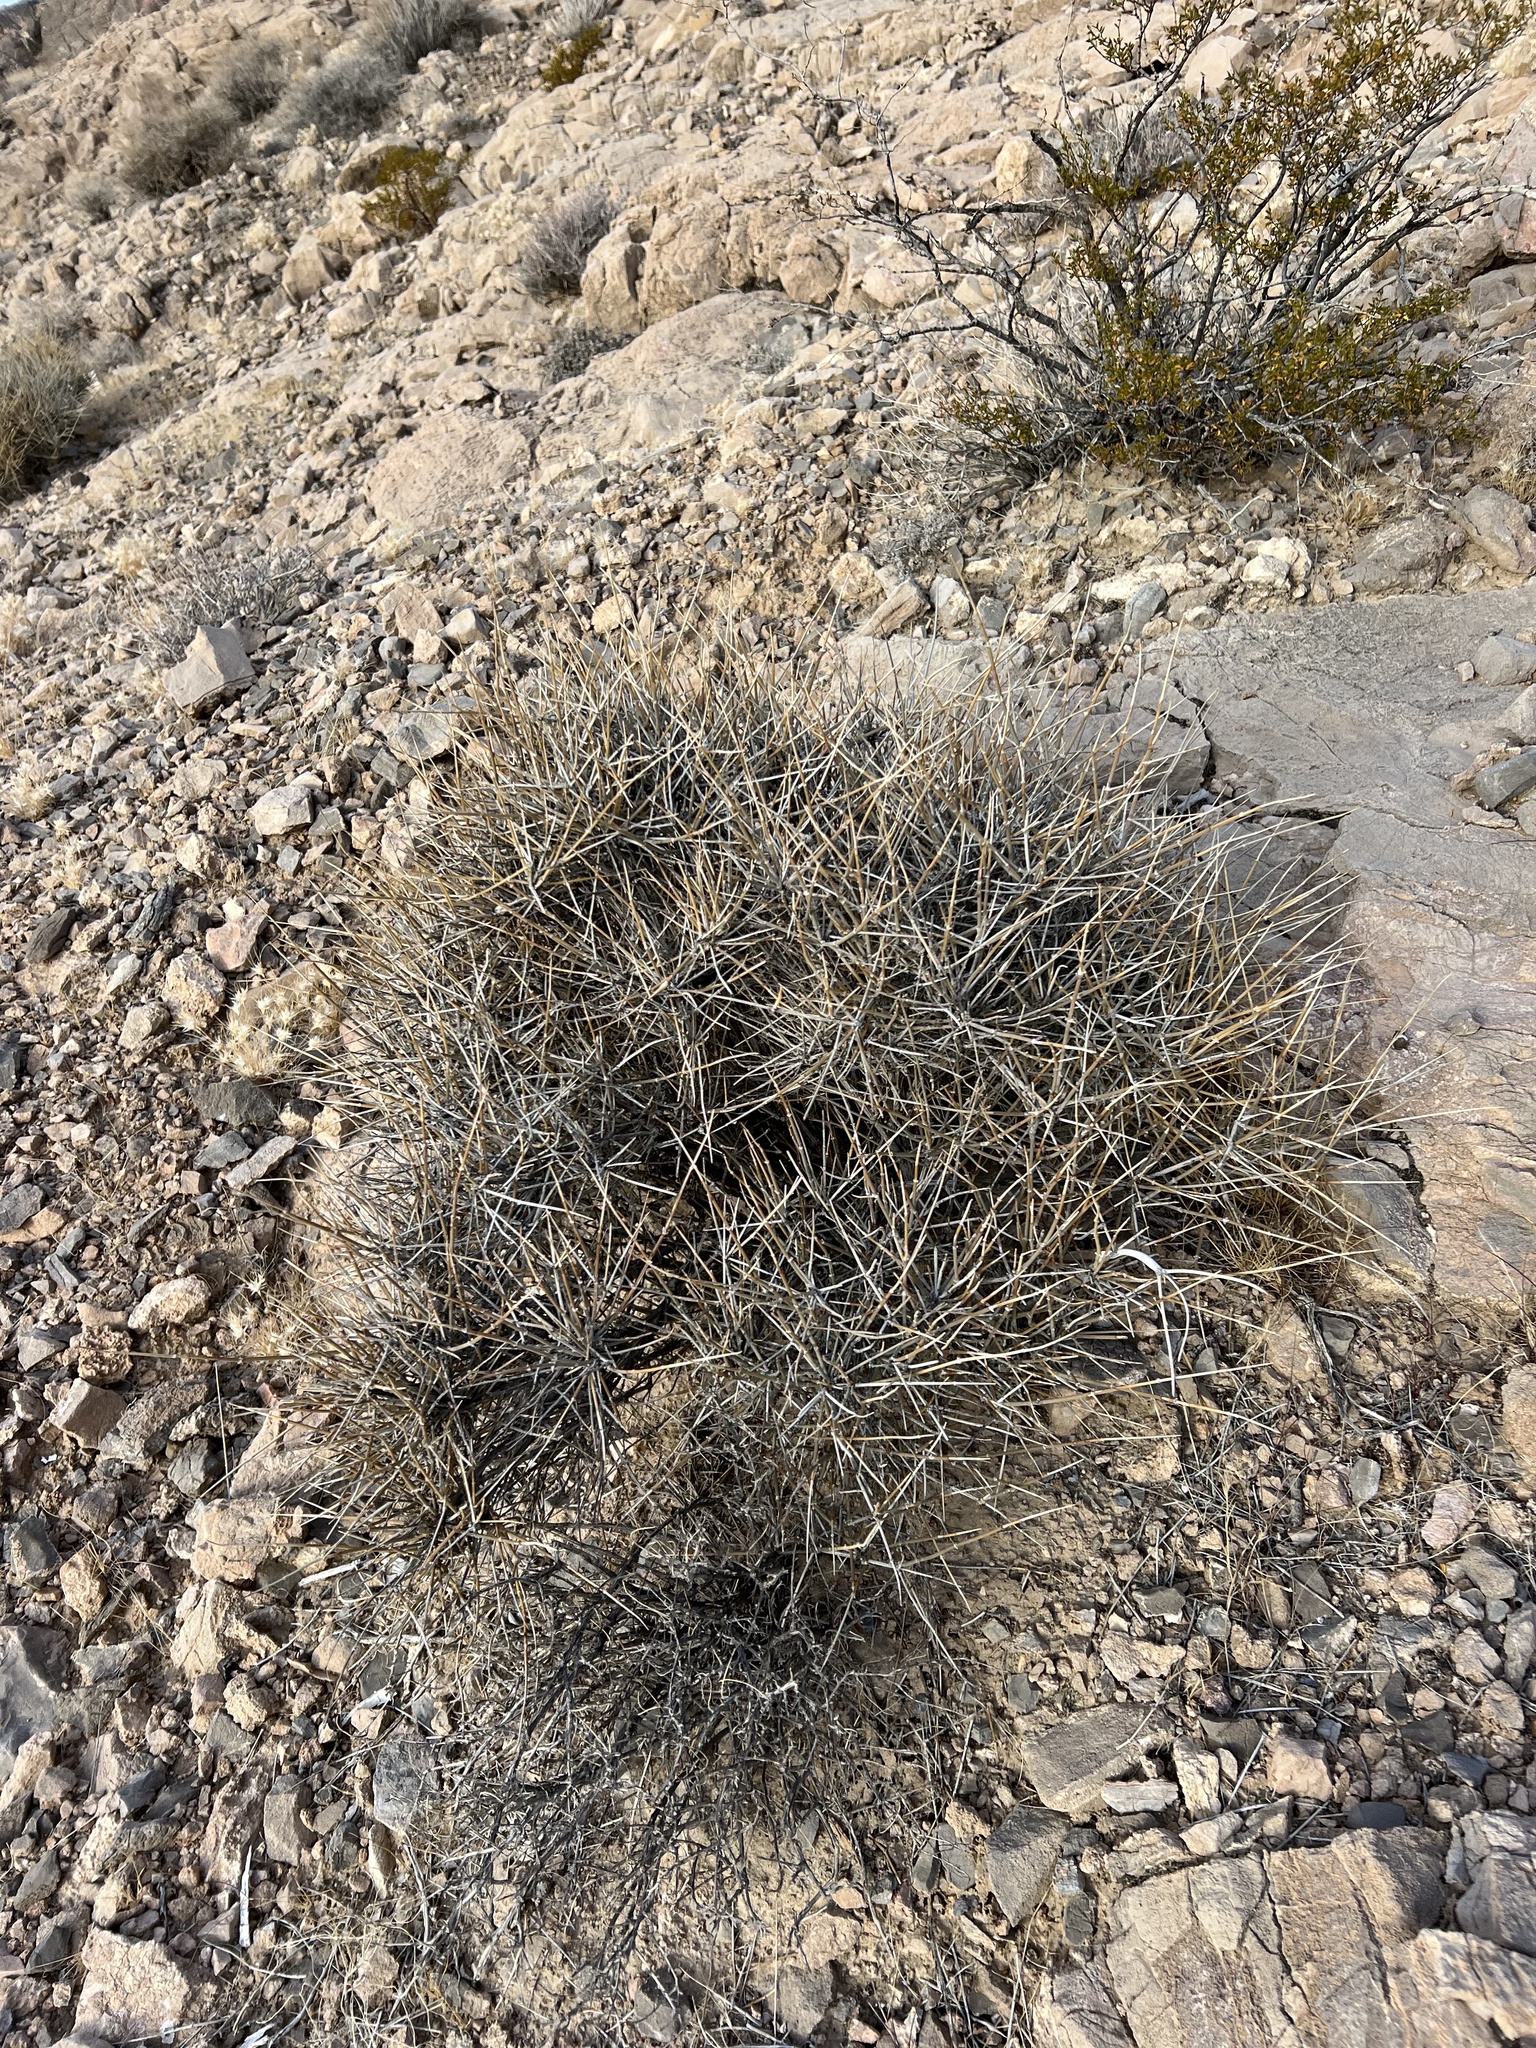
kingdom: Plantae
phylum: Tracheophyta
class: Gnetopsida
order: Ephedrales
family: Ephedraceae
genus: Ephedra
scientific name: Ephedra nevadensis
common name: Gray ephedra
